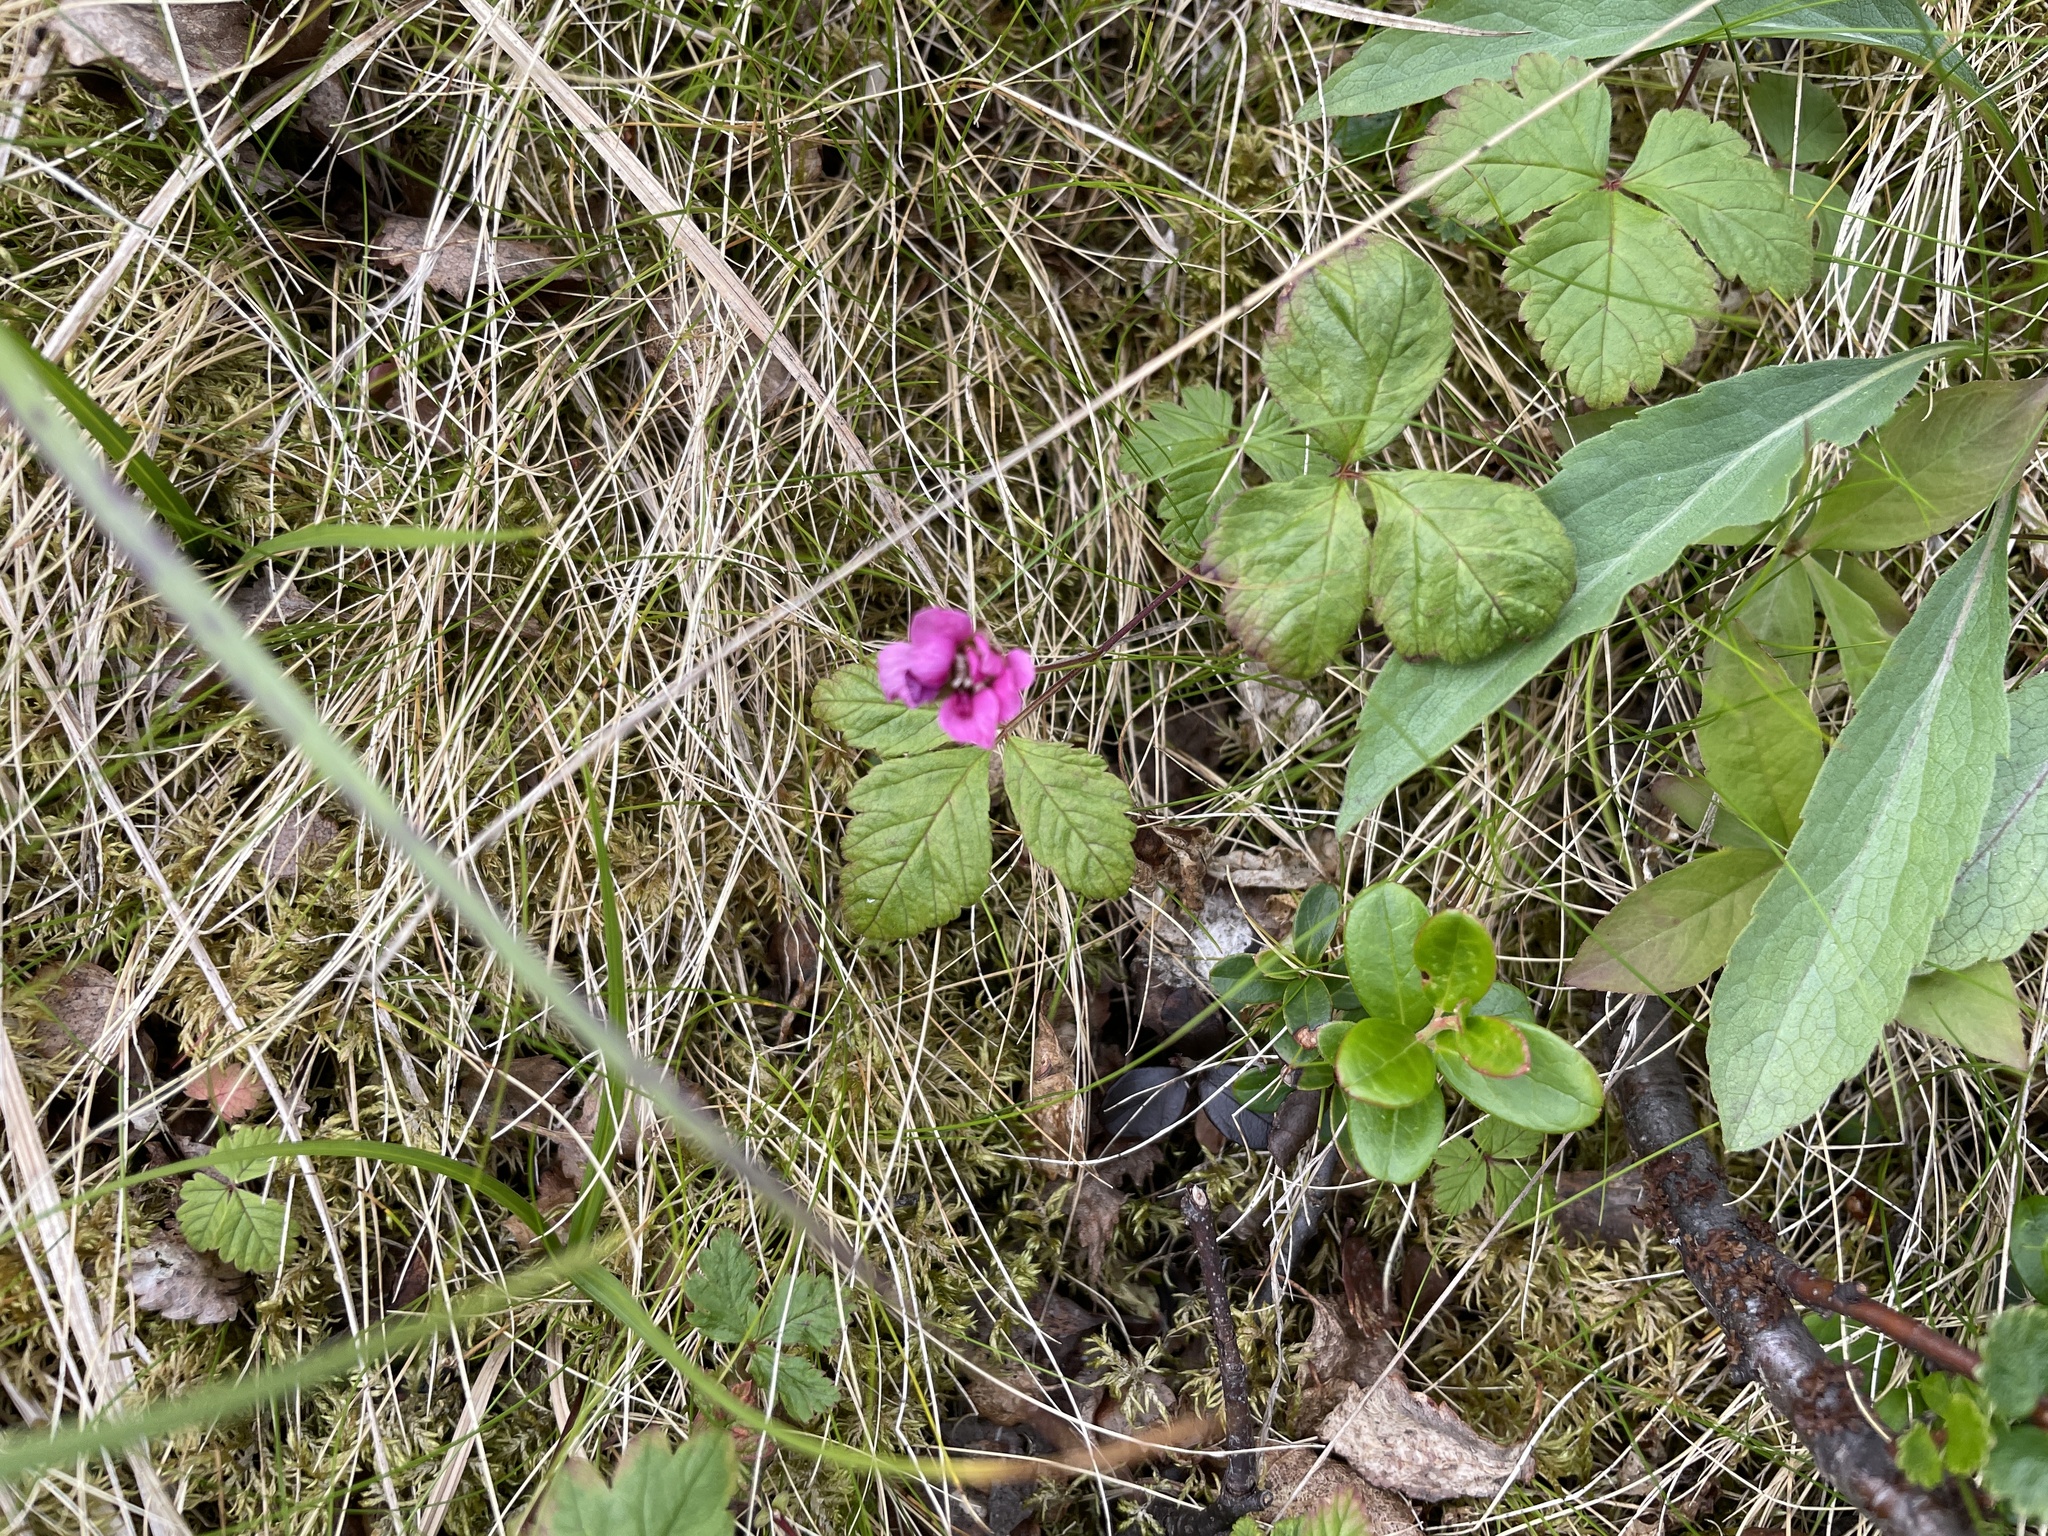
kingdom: Plantae
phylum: Tracheophyta
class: Magnoliopsida
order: Rosales
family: Rosaceae
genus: Rubus
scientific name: Rubus arcticus
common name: Arctic bramble
